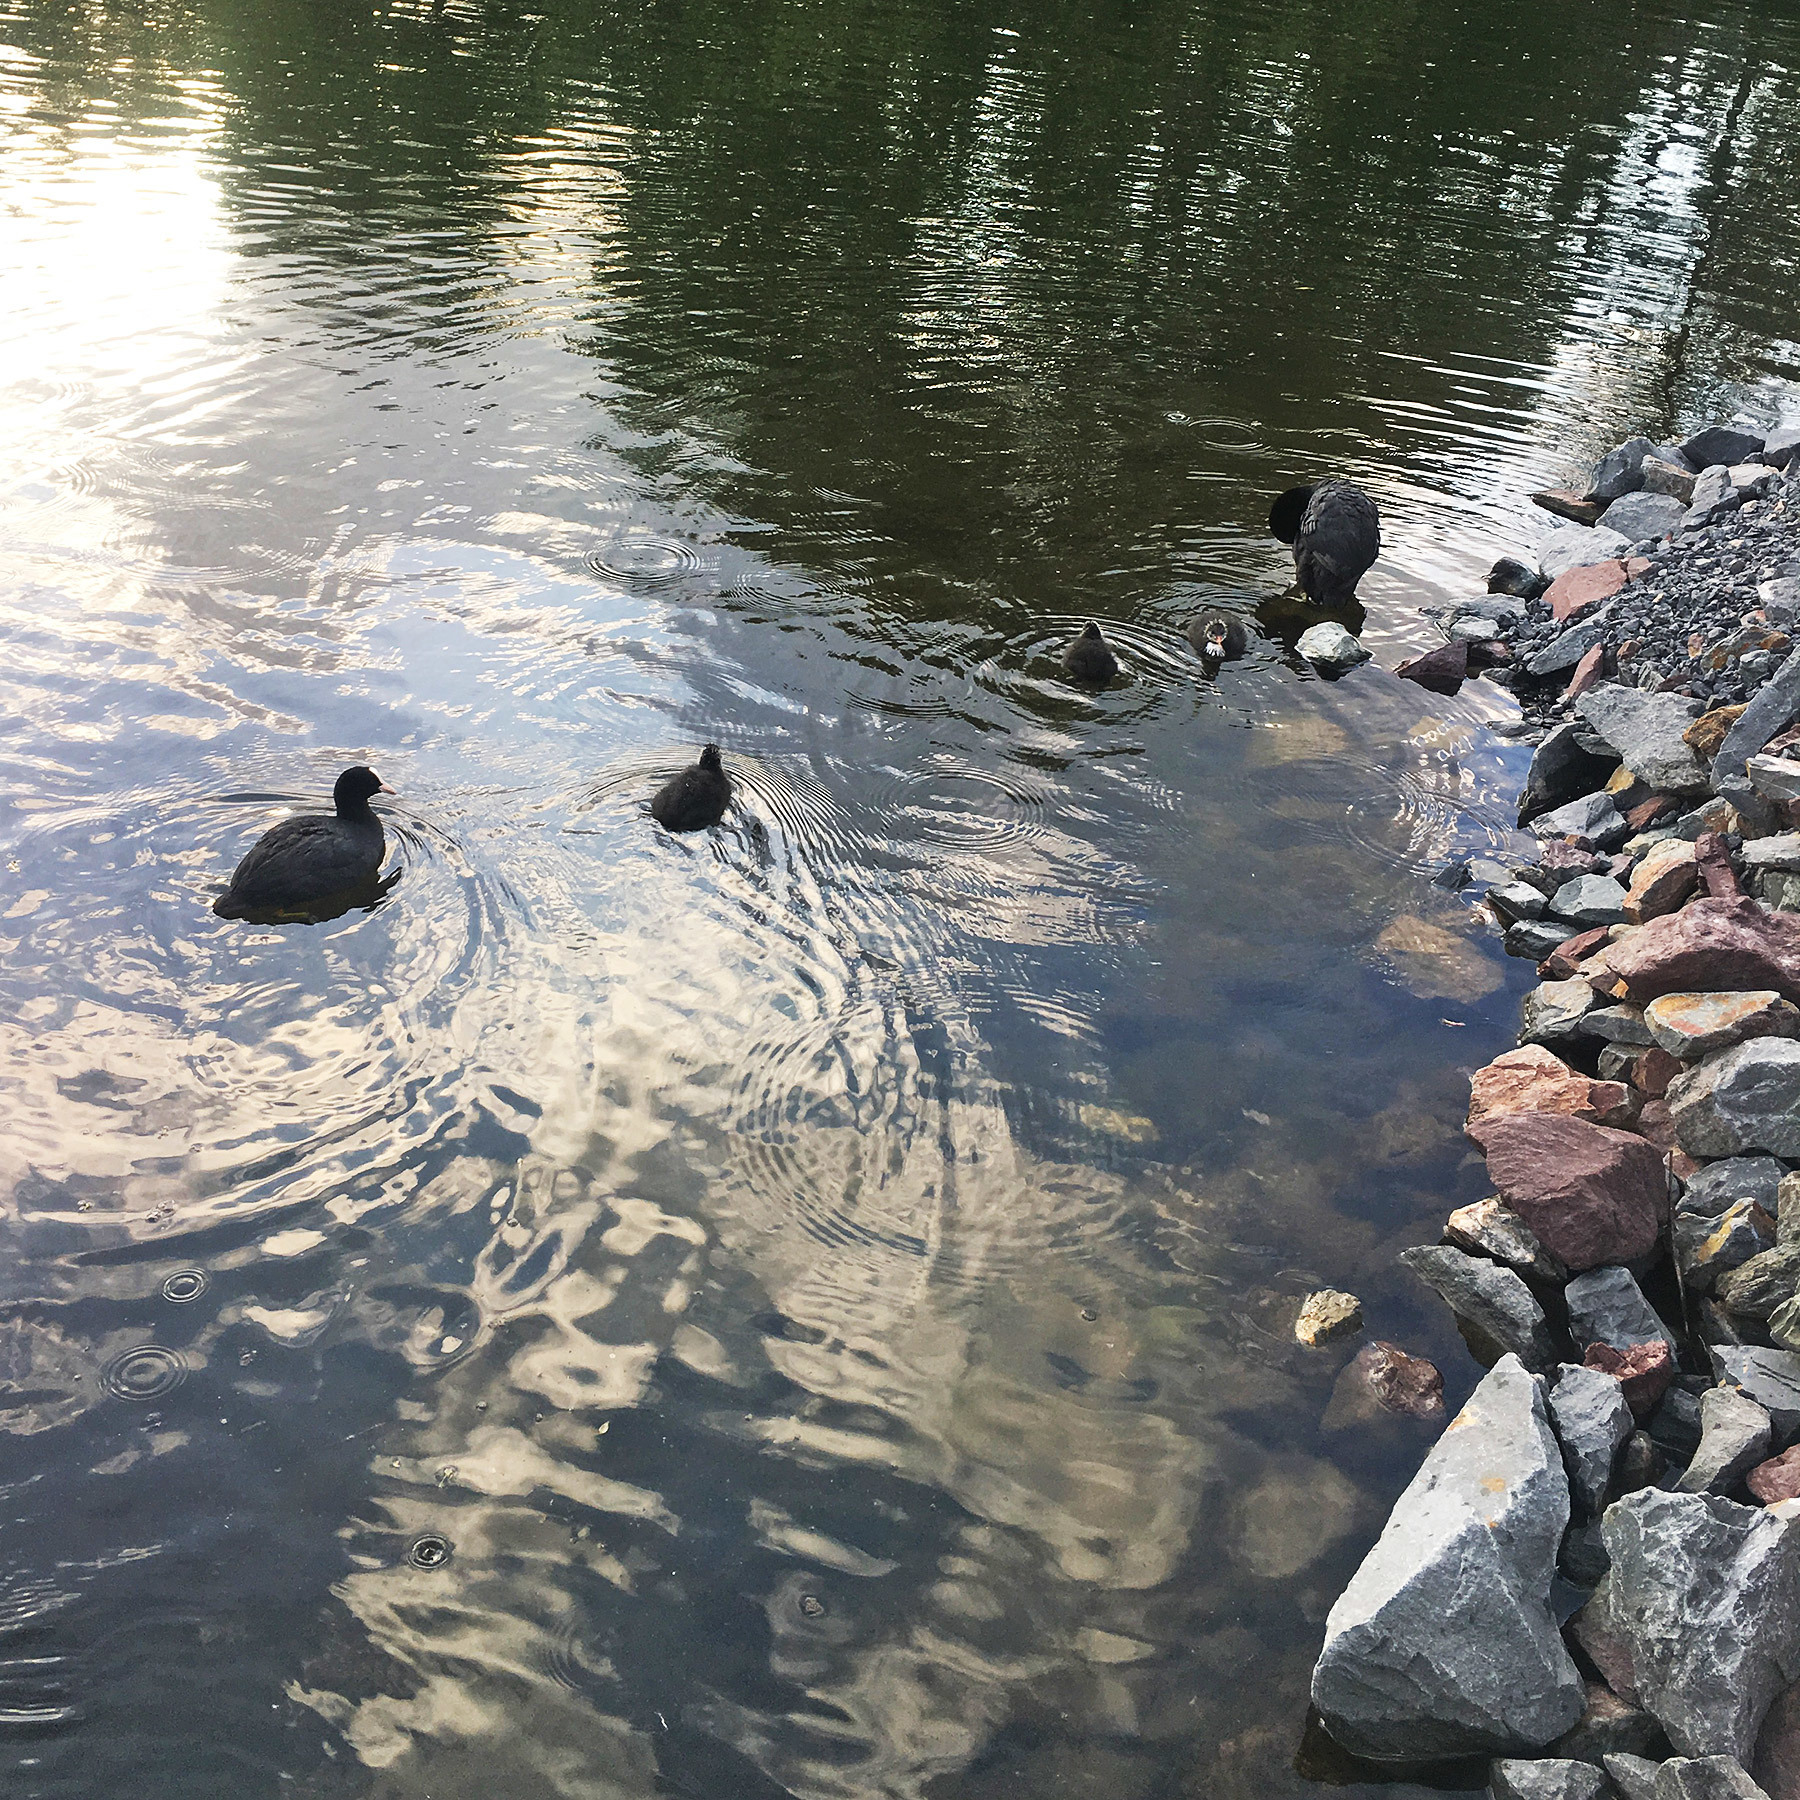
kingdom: Animalia
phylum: Chordata
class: Aves
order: Gruiformes
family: Rallidae
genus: Fulica
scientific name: Fulica atra
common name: Eurasian coot
